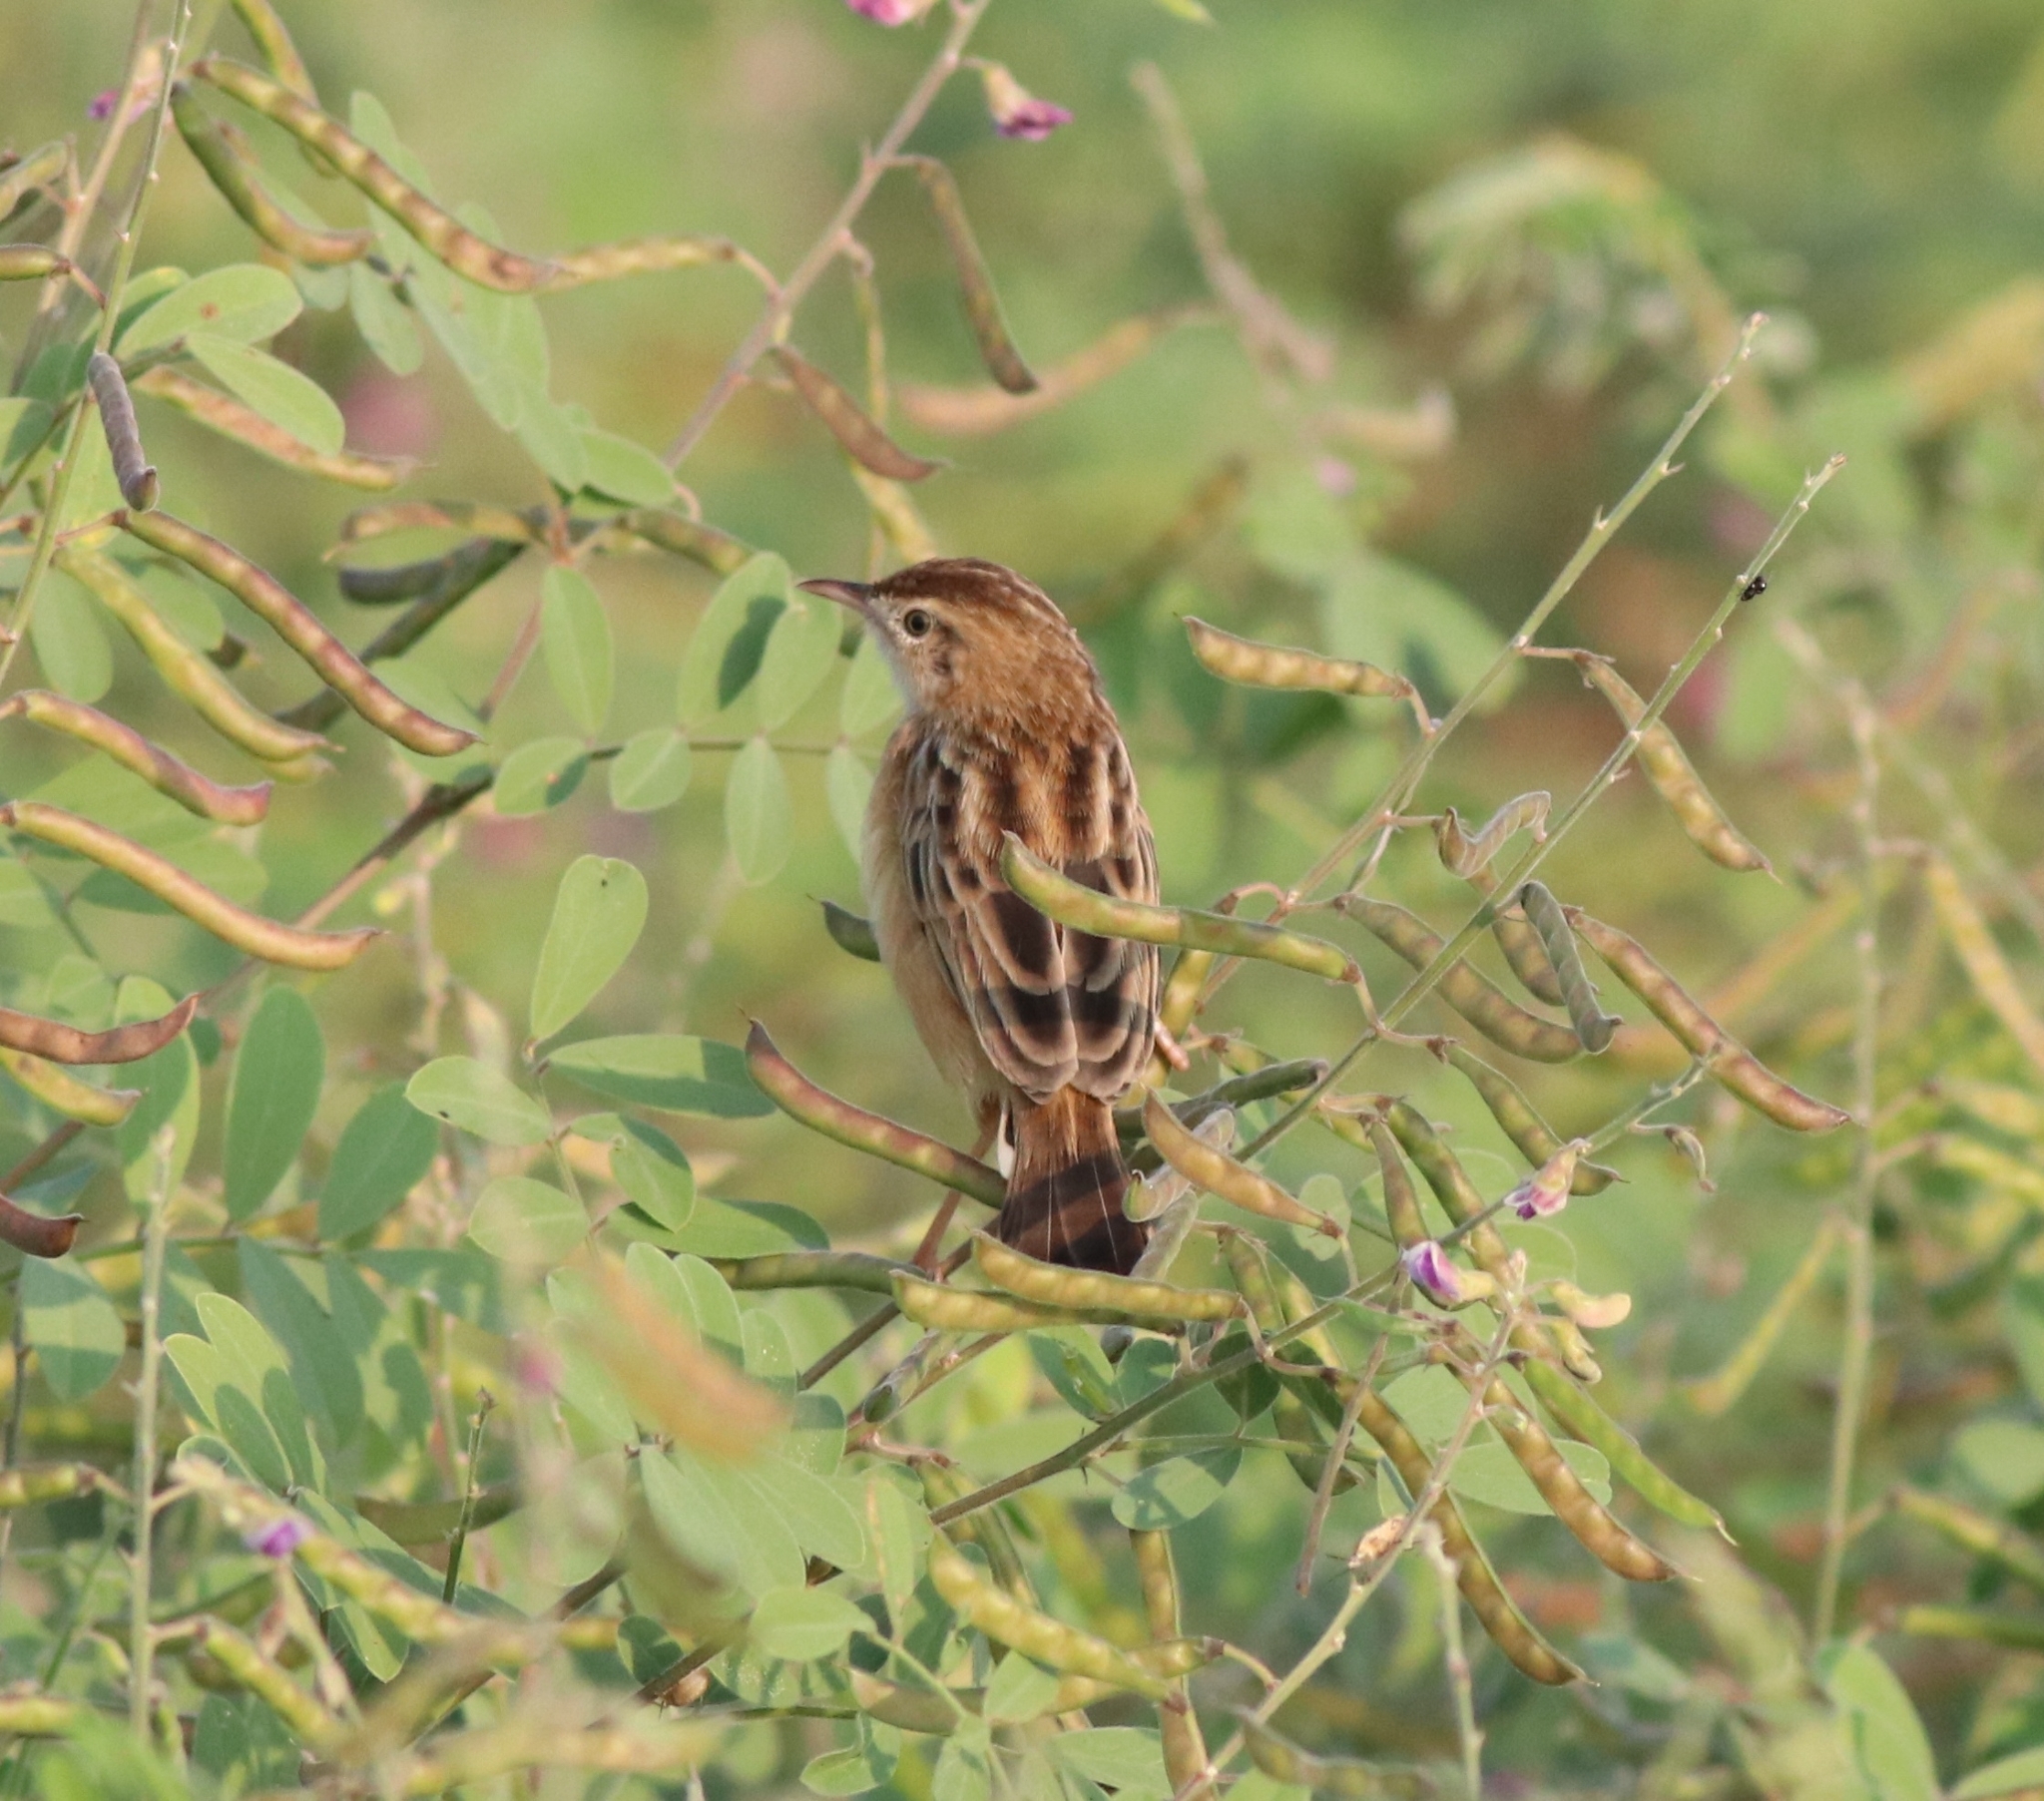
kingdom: Animalia
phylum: Chordata
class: Aves
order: Passeriformes
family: Cisticolidae
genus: Cisticola
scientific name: Cisticola juncidis
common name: Zitting cisticola
